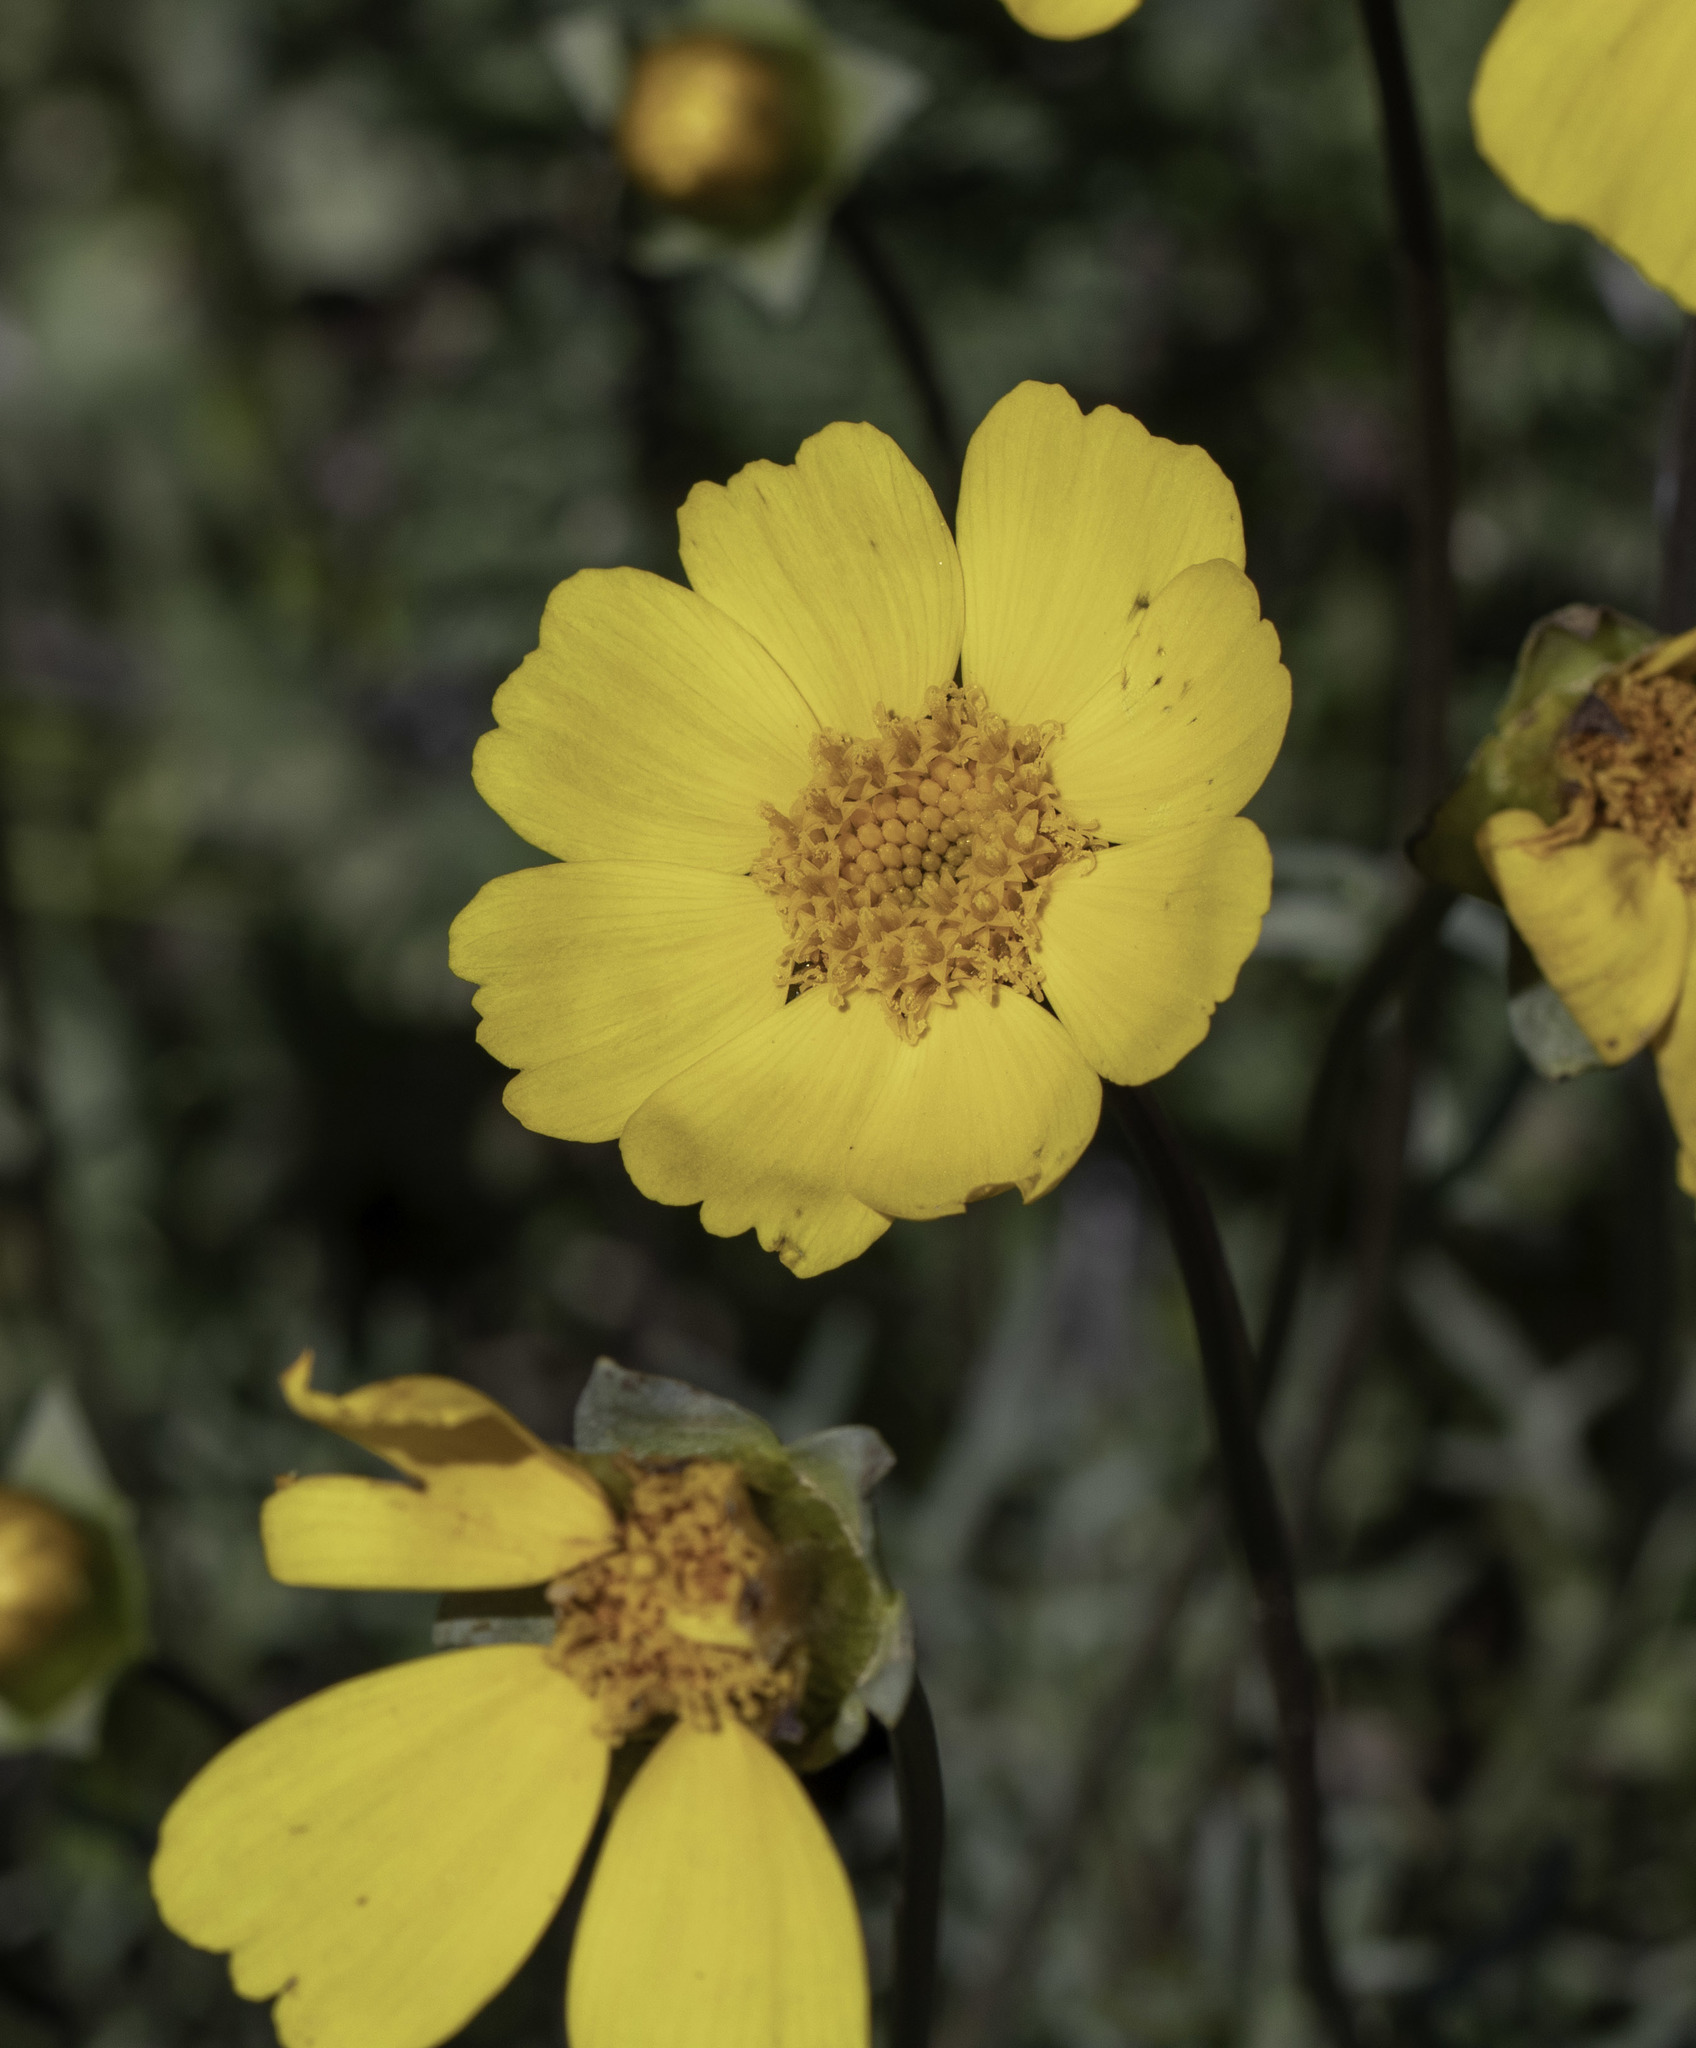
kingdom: Plantae
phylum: Tracheophyta
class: Magnoliopsida
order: Asterales
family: Asteraceae
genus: Coreopsis
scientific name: Coreopsis calliopsidea
